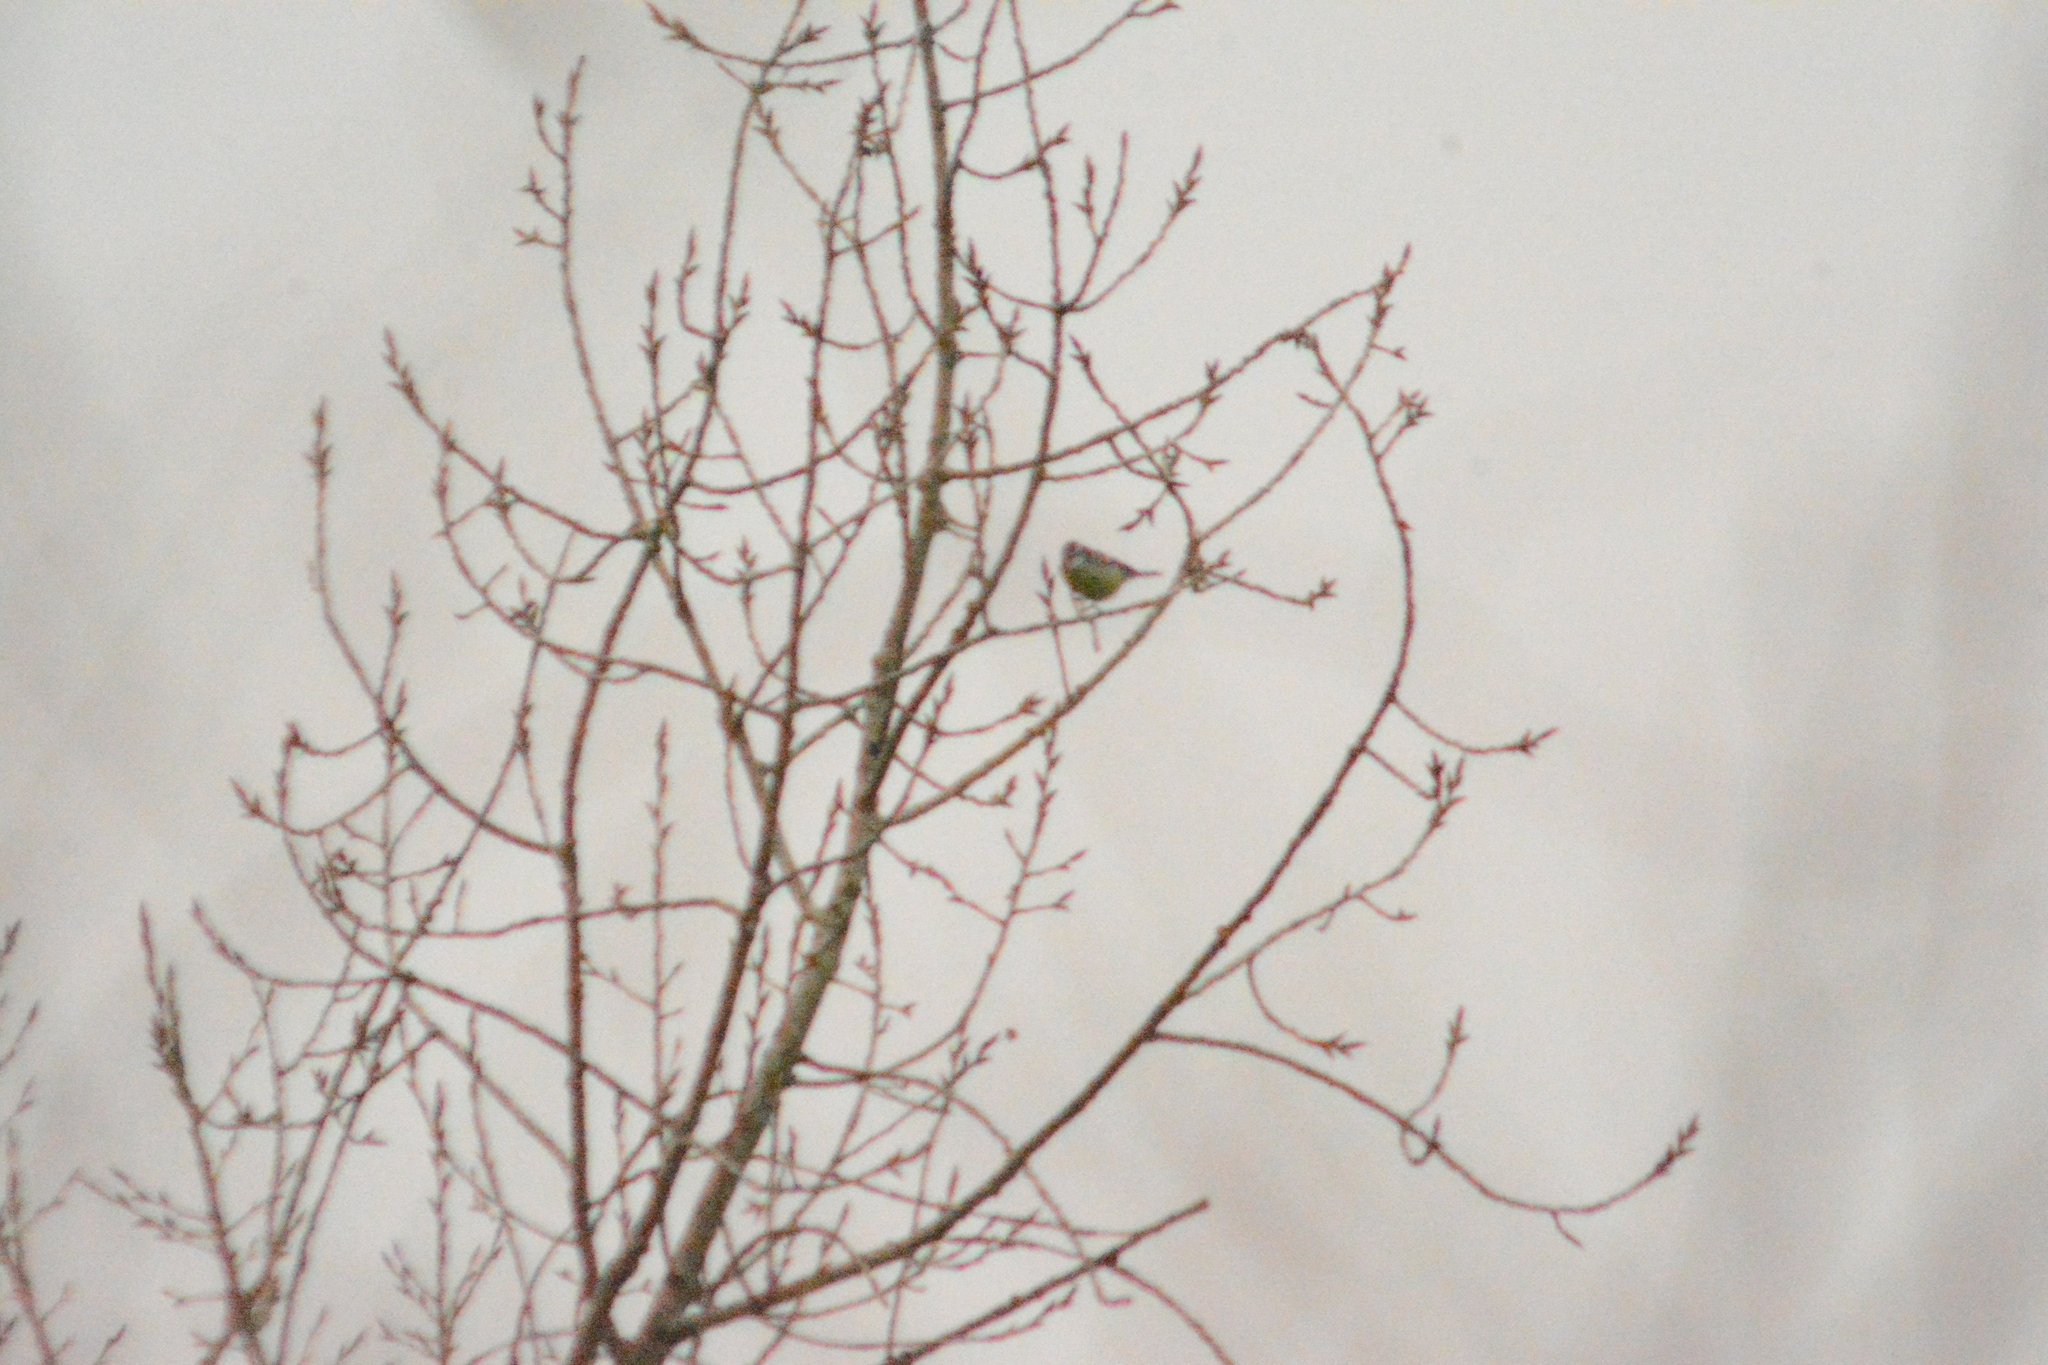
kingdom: Animalia
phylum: Chordata
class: Aves
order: Passeriformes
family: Paridae
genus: Cyanistes
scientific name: Cyanistes caeruleus
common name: Eurasian blue tit
